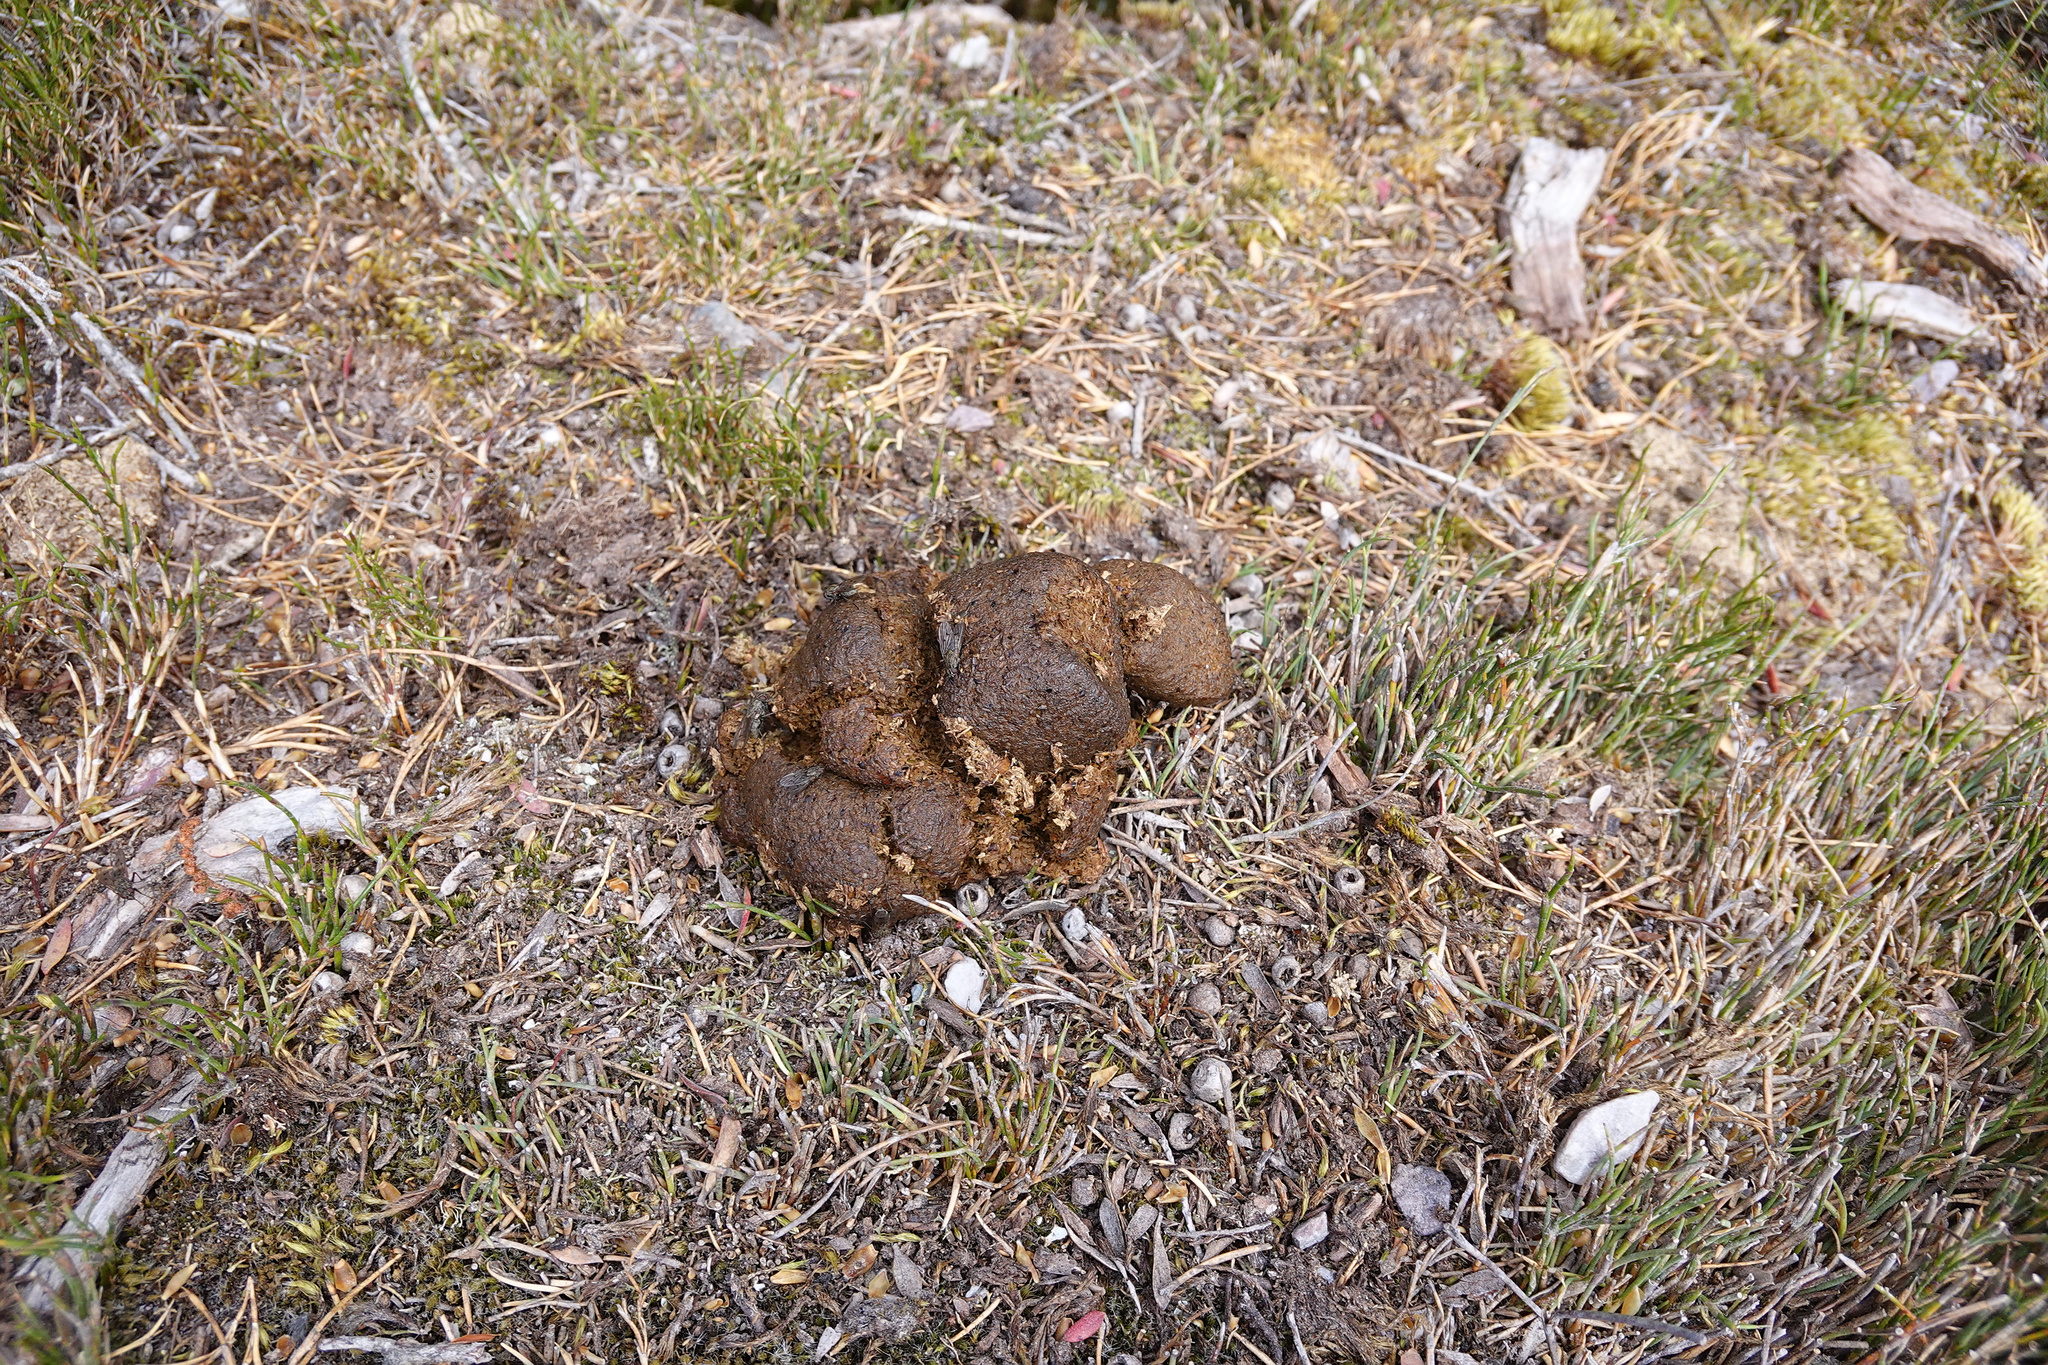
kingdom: Animalia
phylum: Chordata
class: Mammalia
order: Diprotodontia
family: Vombatidae
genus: Vombatus
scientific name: Vombatus ursinus
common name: Common wombat
